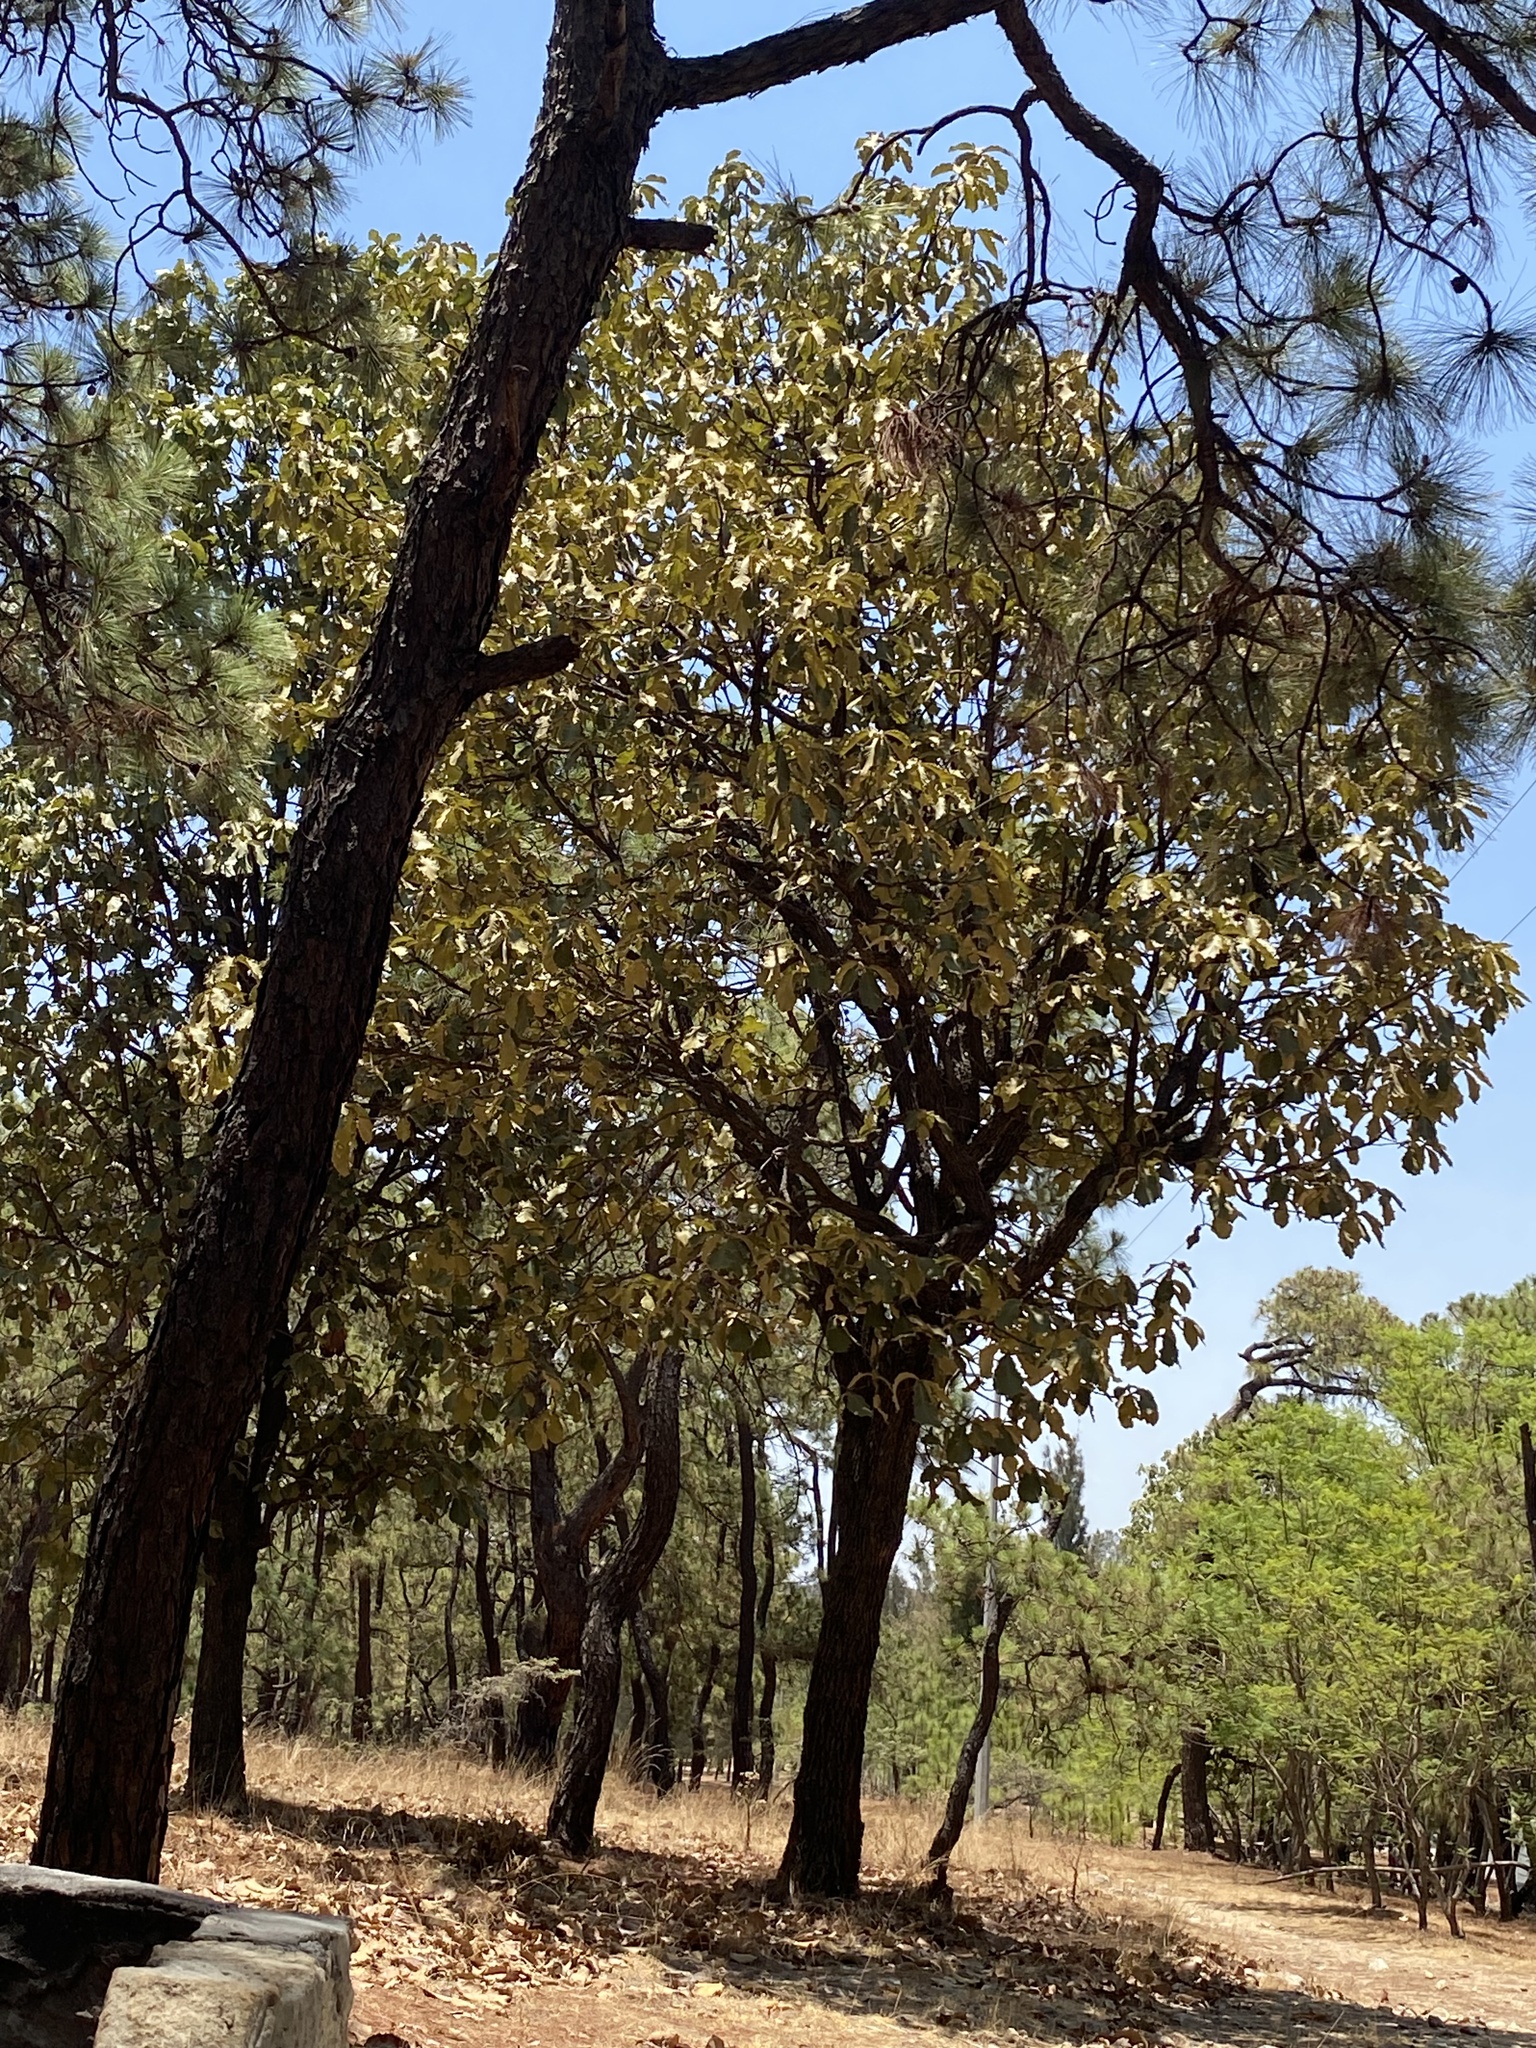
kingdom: Plantae
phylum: Tracheophyta
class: Magnoliopsida
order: Fagales
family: Fagaceae
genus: Quercus
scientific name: Quercus resinosa
